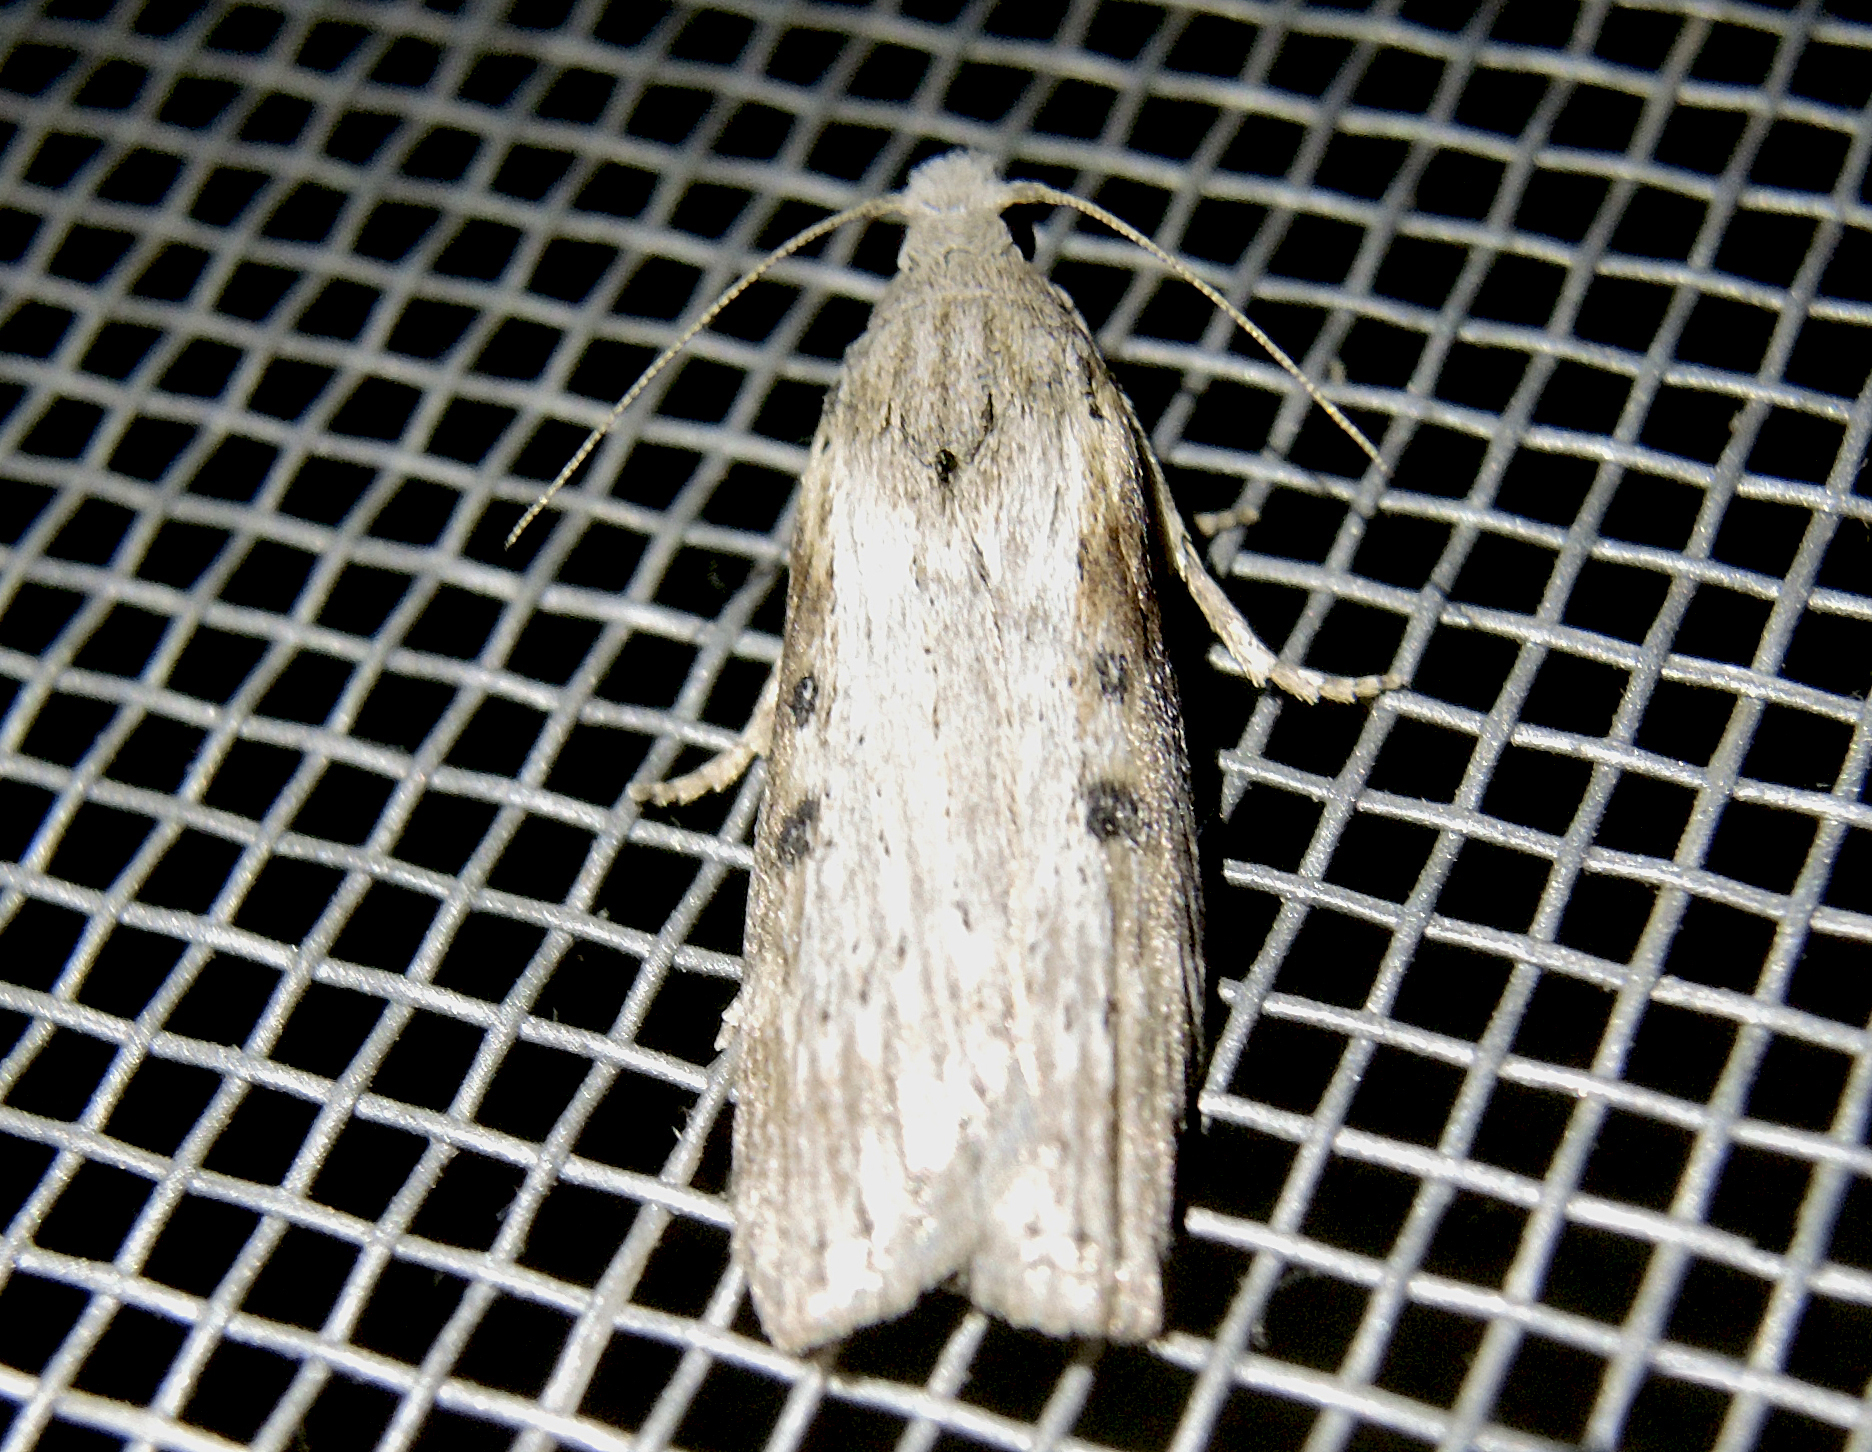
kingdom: Animalia
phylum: Arthropoda
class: Insecta
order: Lepidoptera
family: Pyralidae
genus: Lamoria
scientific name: Lamoria anella
